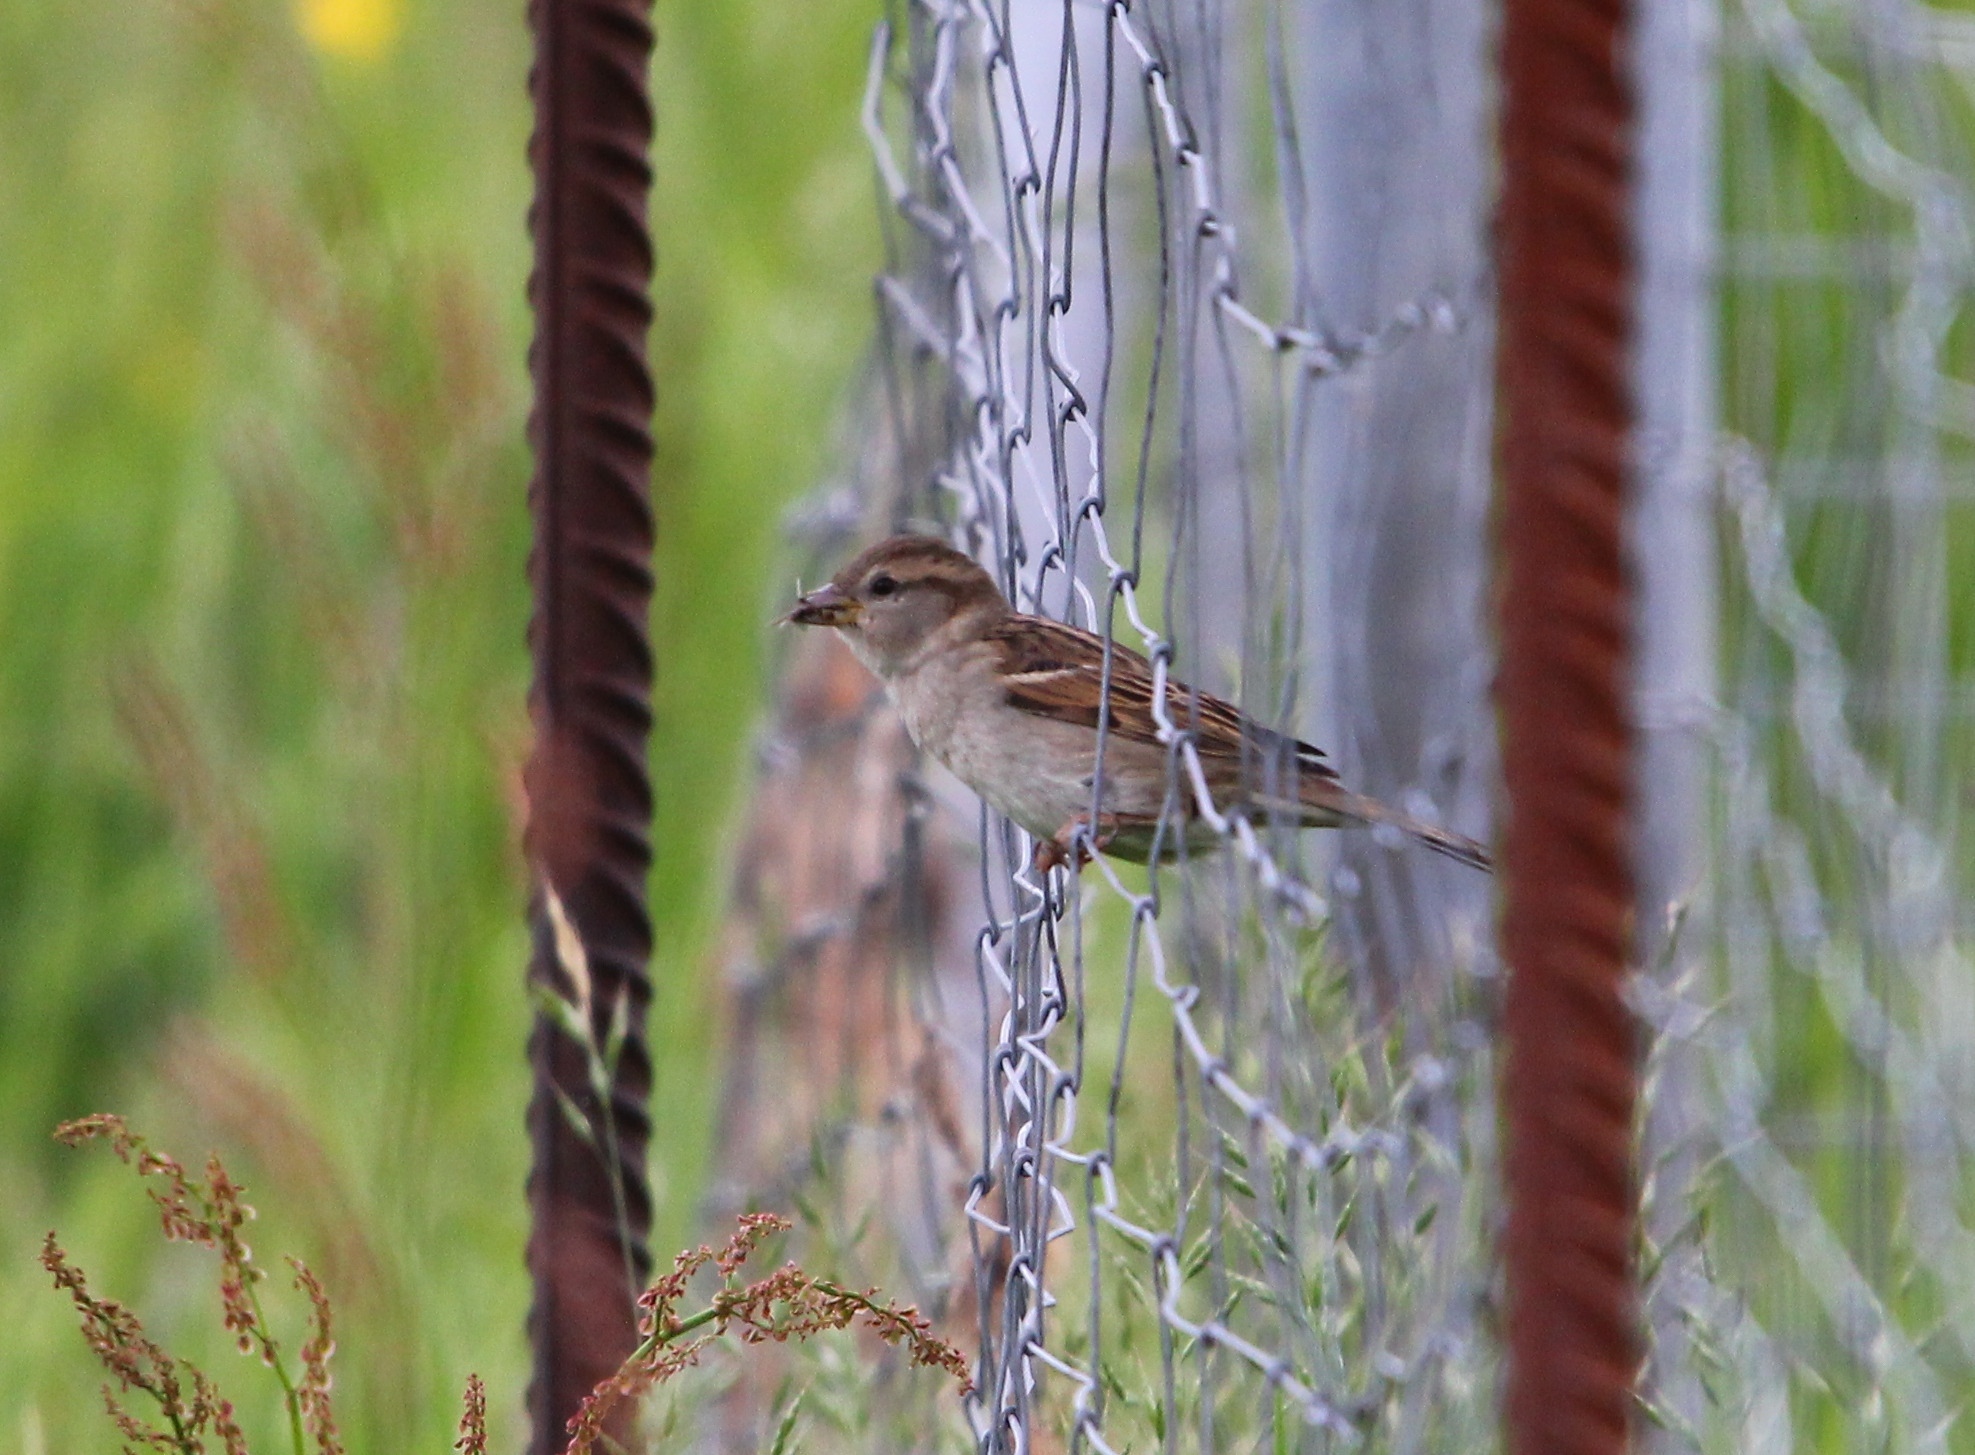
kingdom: Animalia
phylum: Chordata
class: Aves
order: Passeriformes
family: Passeridae
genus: Passer
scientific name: Passer domesticus
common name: House sparrow
